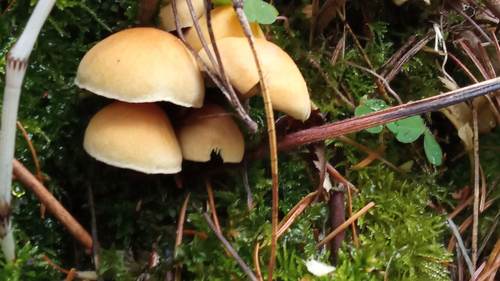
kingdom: Fungi
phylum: Basidiomycota
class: Agaricomycetes
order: Agaricales
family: Strophariaceae
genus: Hypholoma
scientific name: Hypholoma capnoides
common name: Conifer tuft
